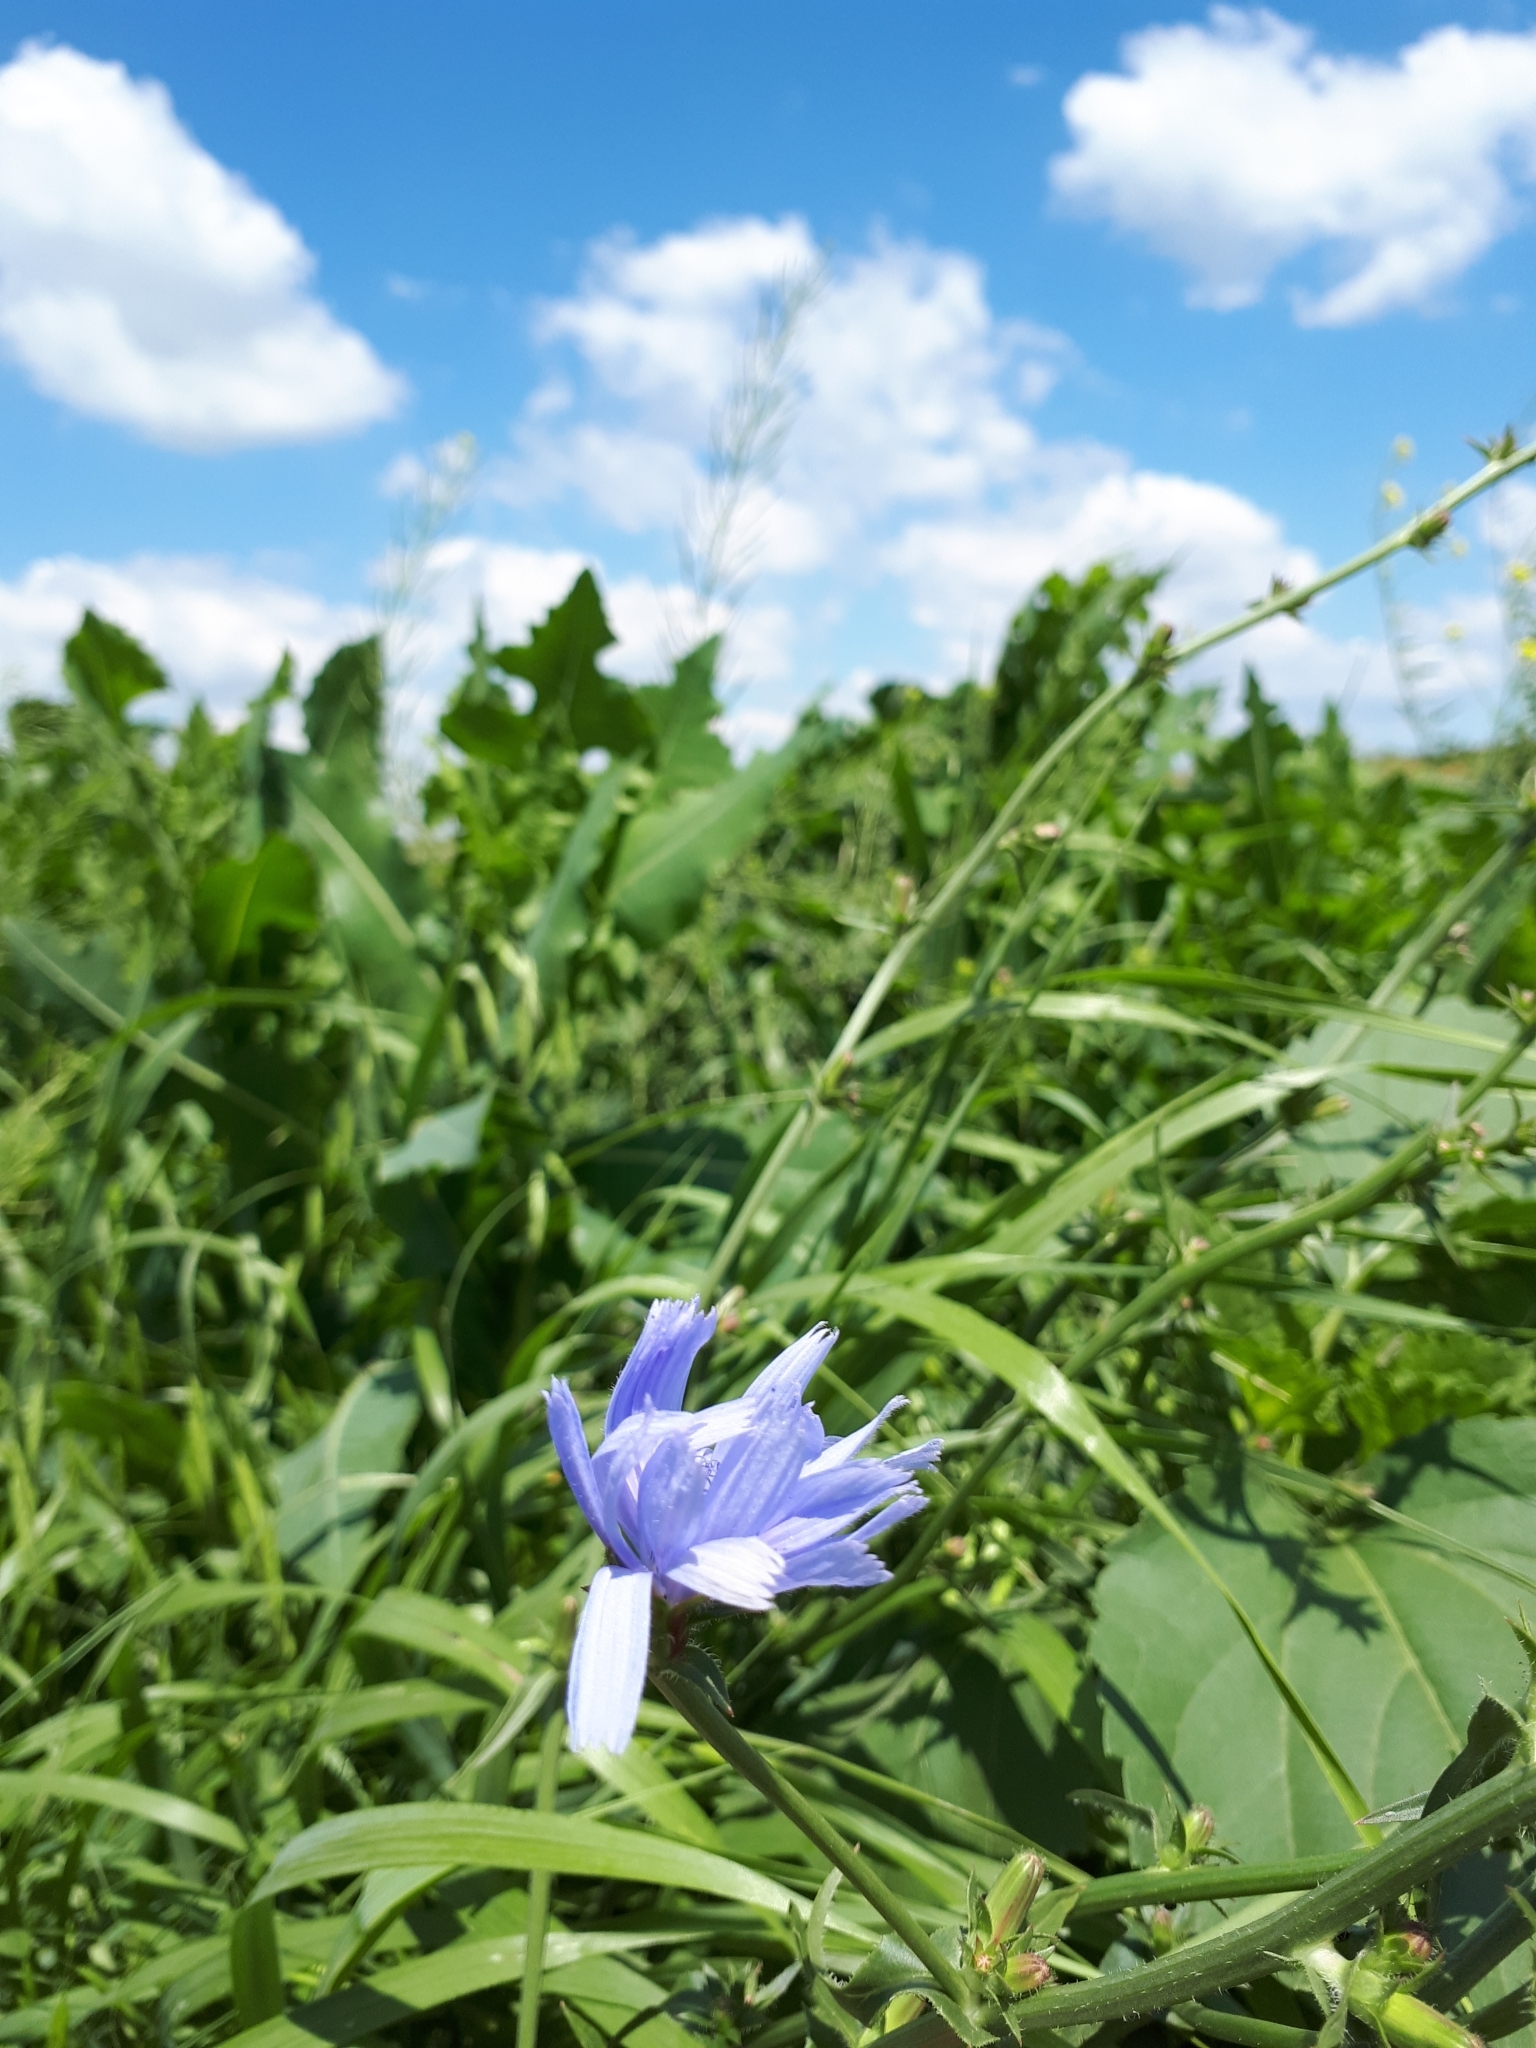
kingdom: Plantae
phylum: Tracheophyta
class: Magnoliopsida
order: Asterales
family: Asteraceae
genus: Cichorium
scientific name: Cichorium intybus
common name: Chicory
